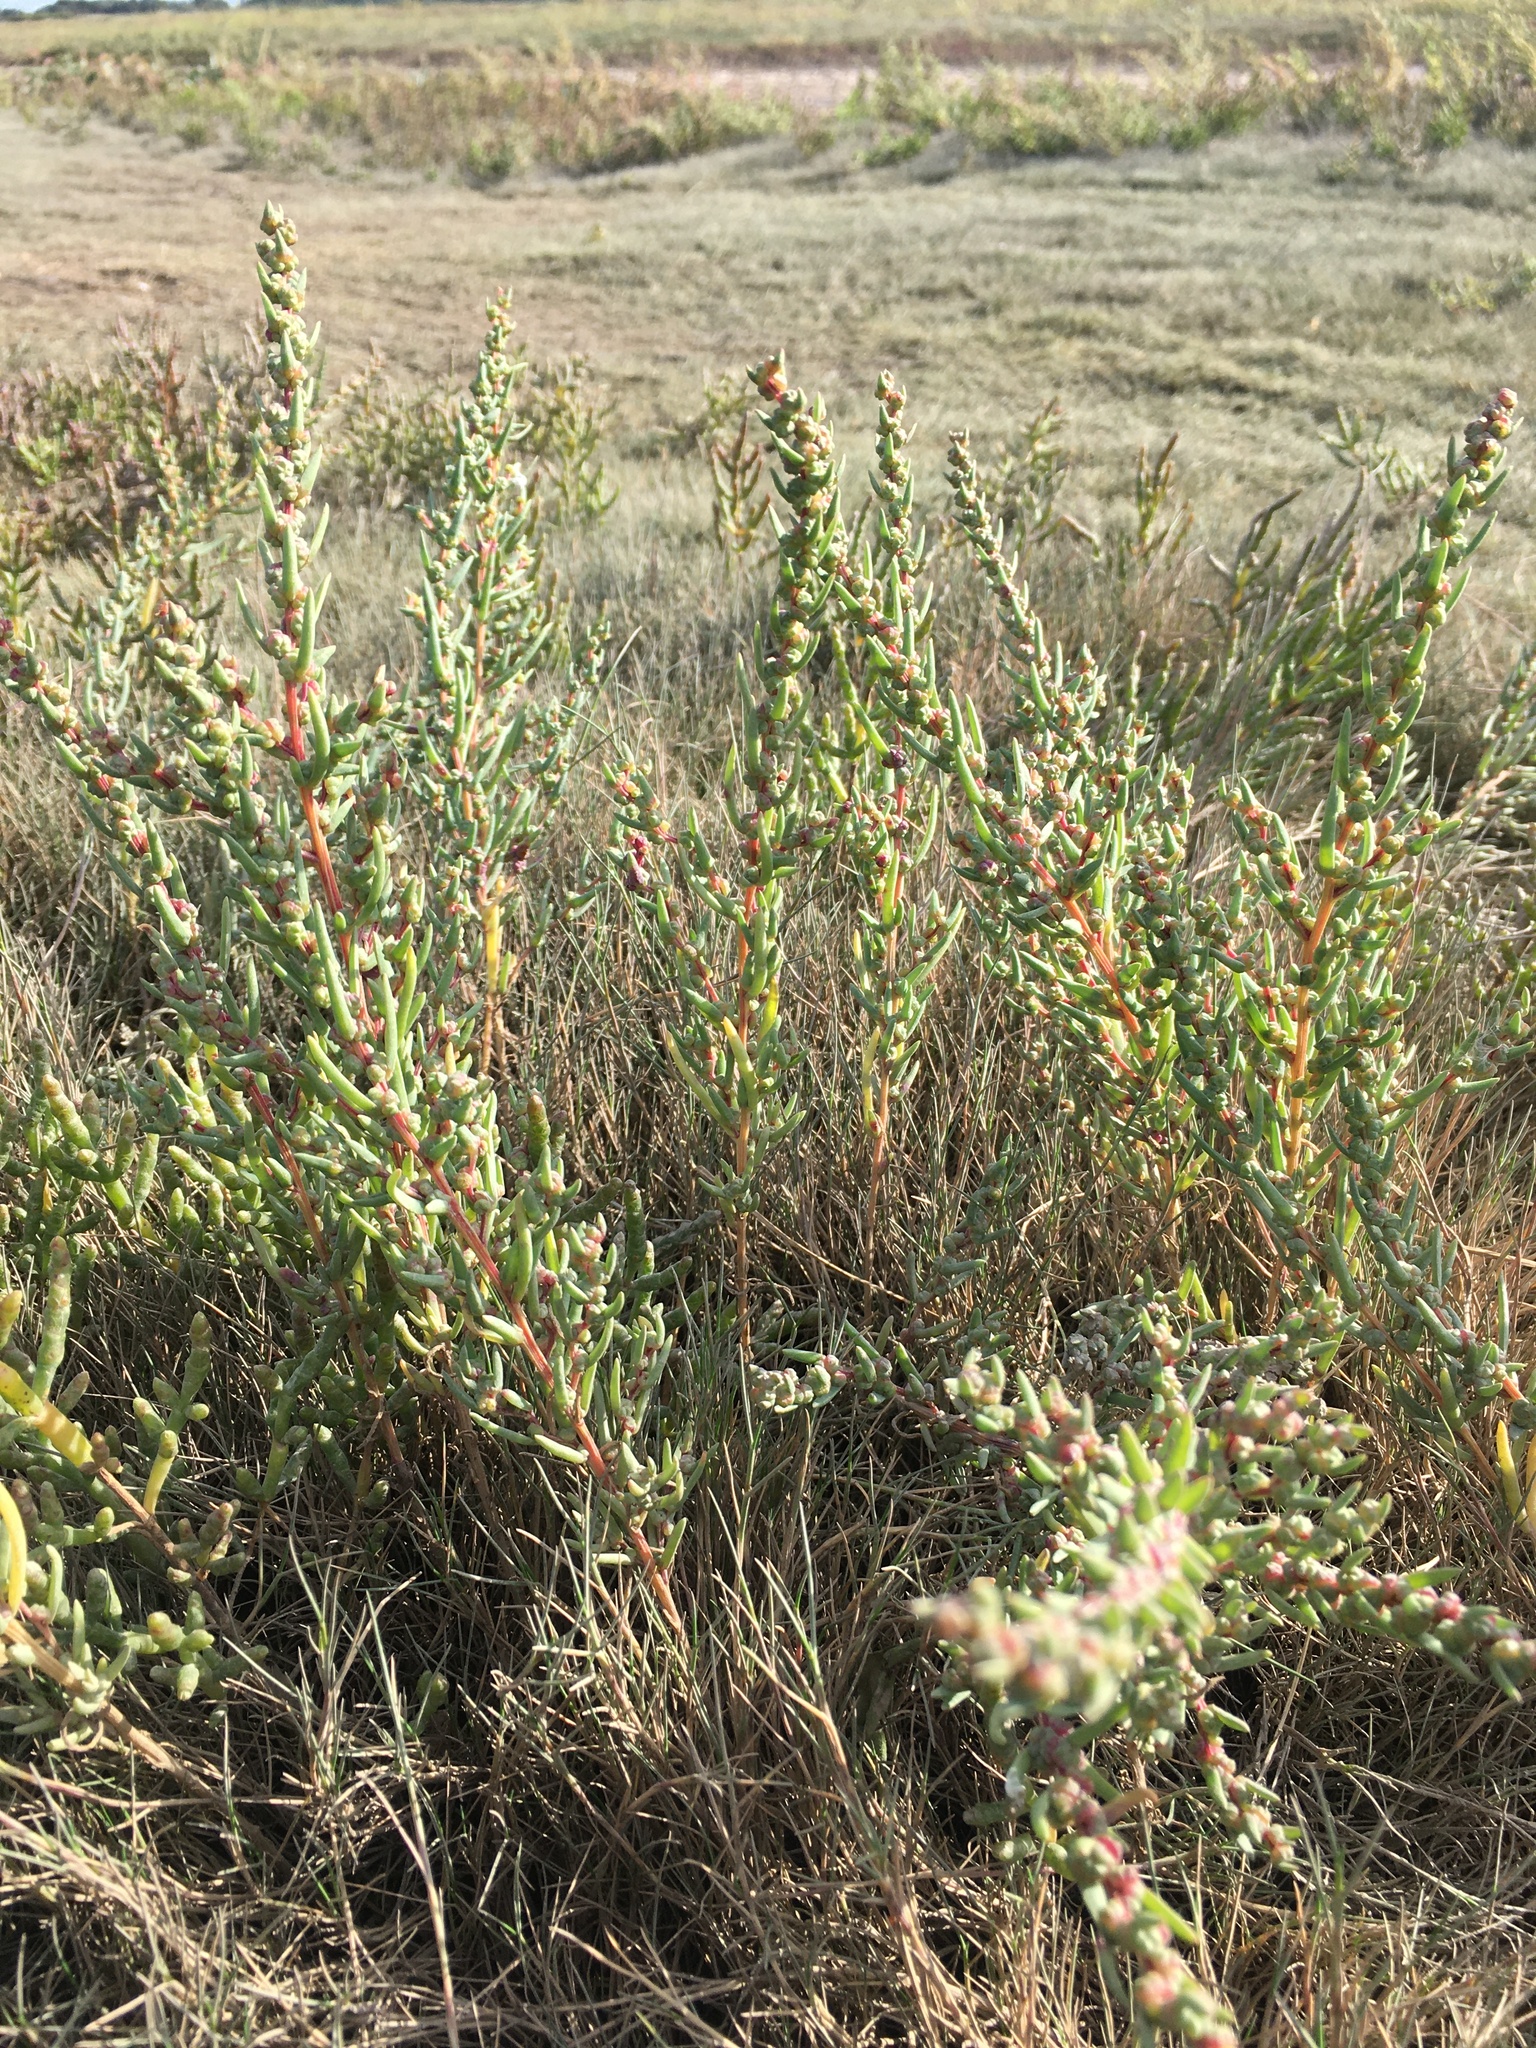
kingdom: Plantae
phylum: Tracheophyta
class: Magnoliopsida
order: Caryophyllales
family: Amaranthaceae
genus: Suaeda
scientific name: Suaeda maritima
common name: Annual sea-blite
